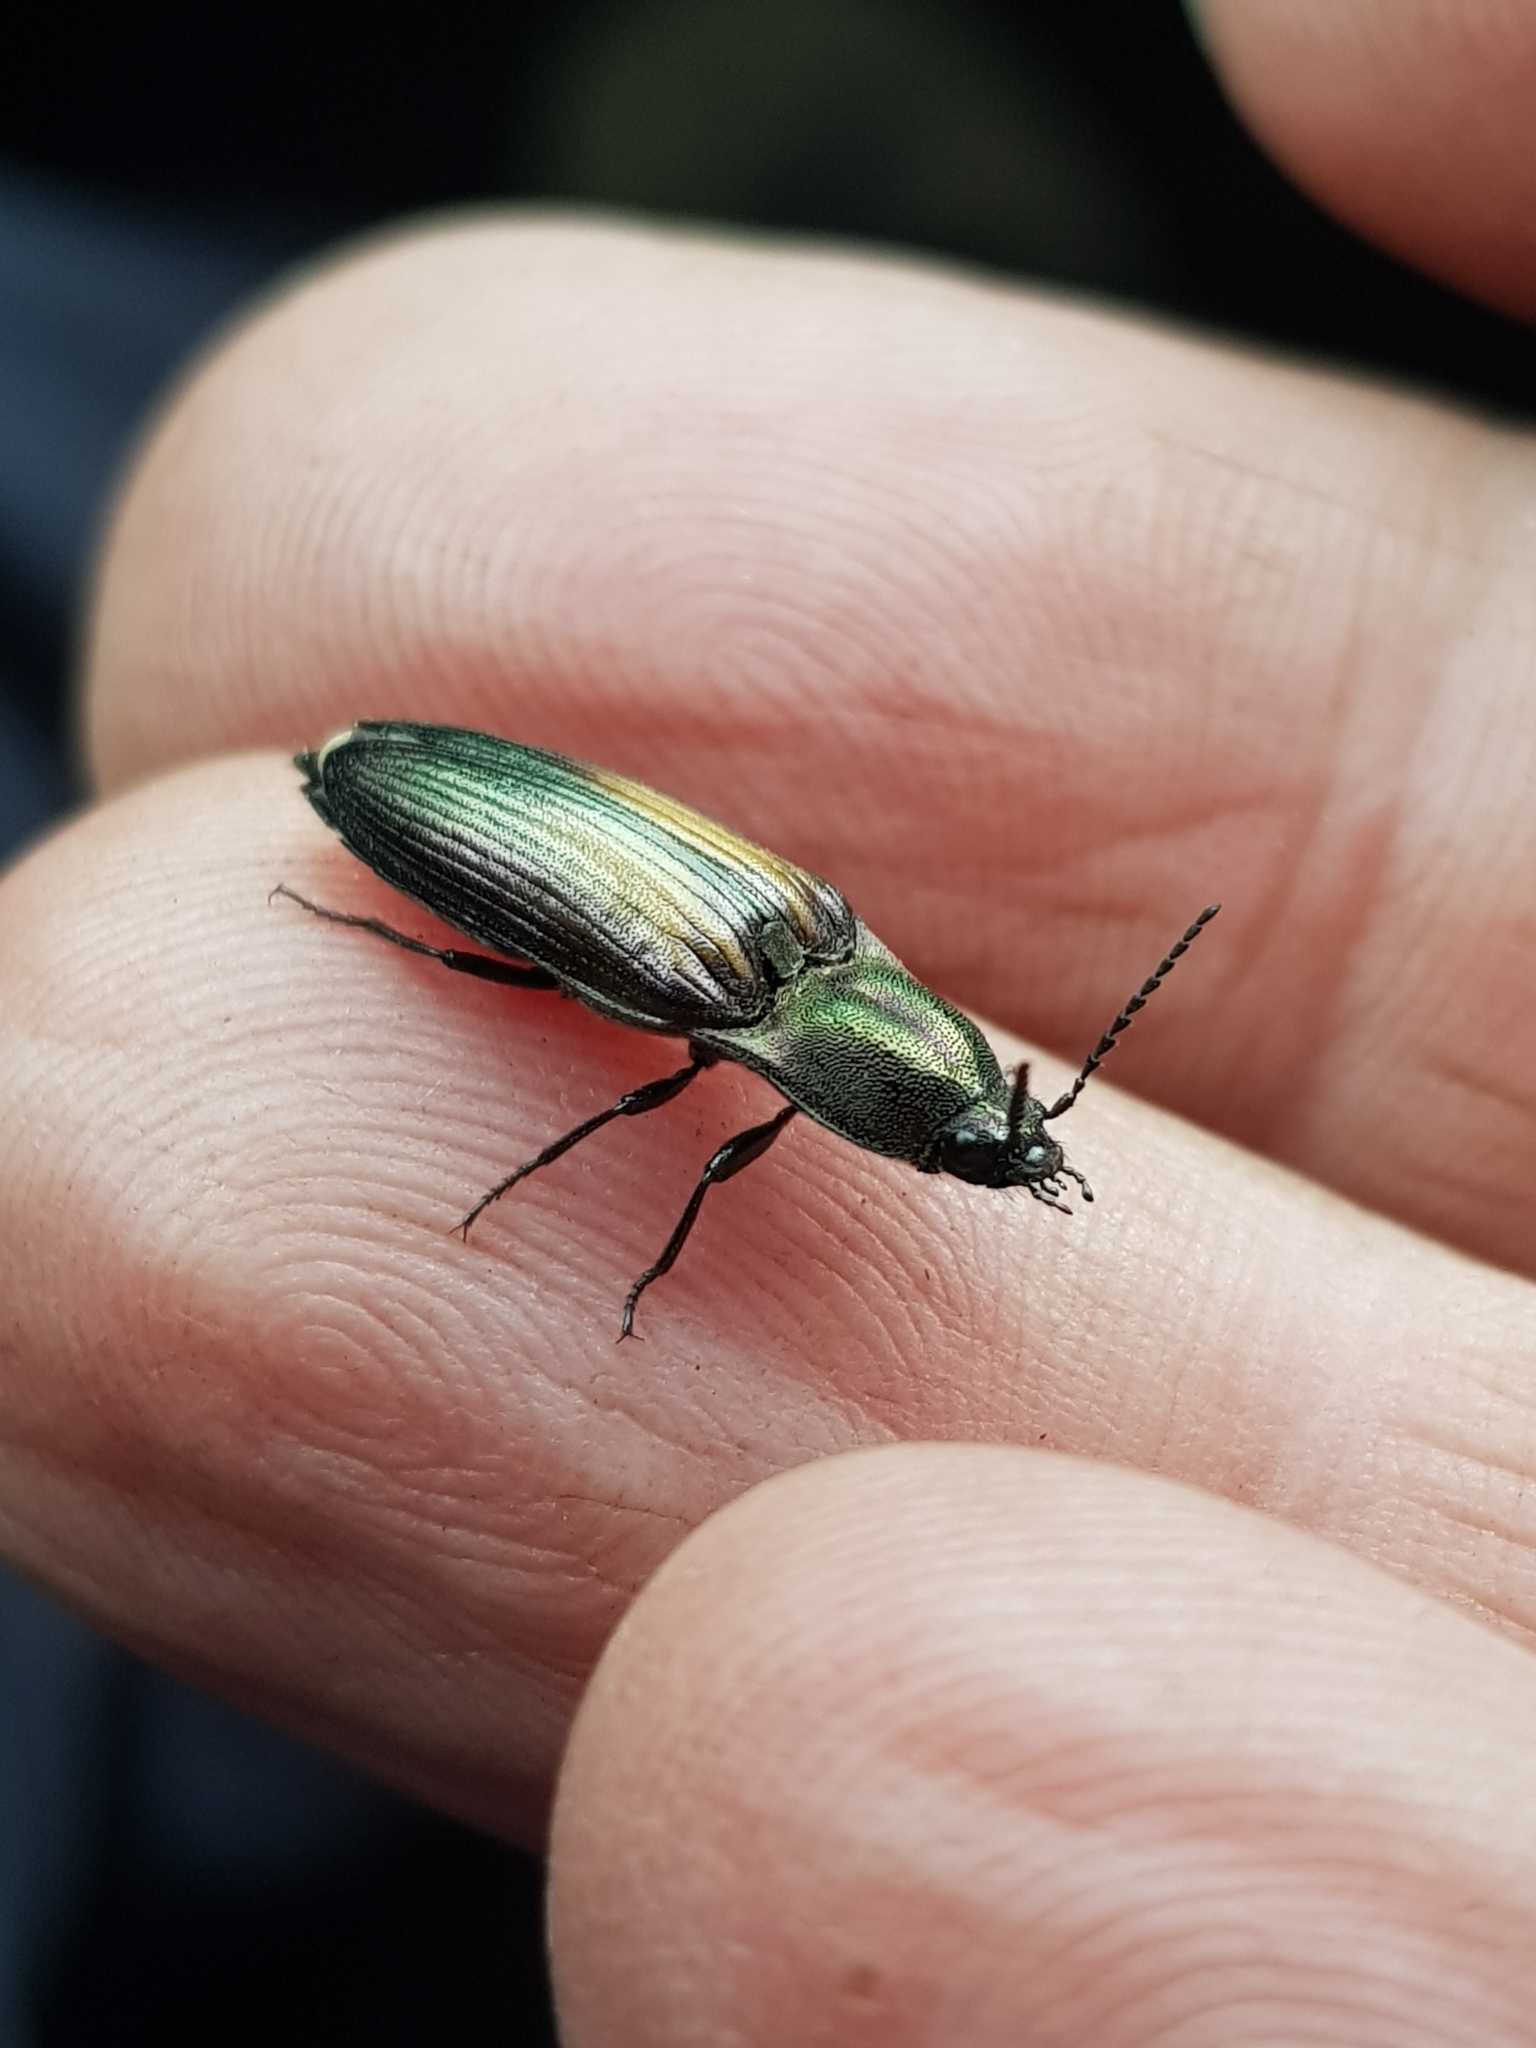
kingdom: Animalia
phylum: Arthropoda
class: Insecta
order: Coleoptera
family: Elateridae
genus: Ctenicera
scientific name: Ctenicera cuprea
